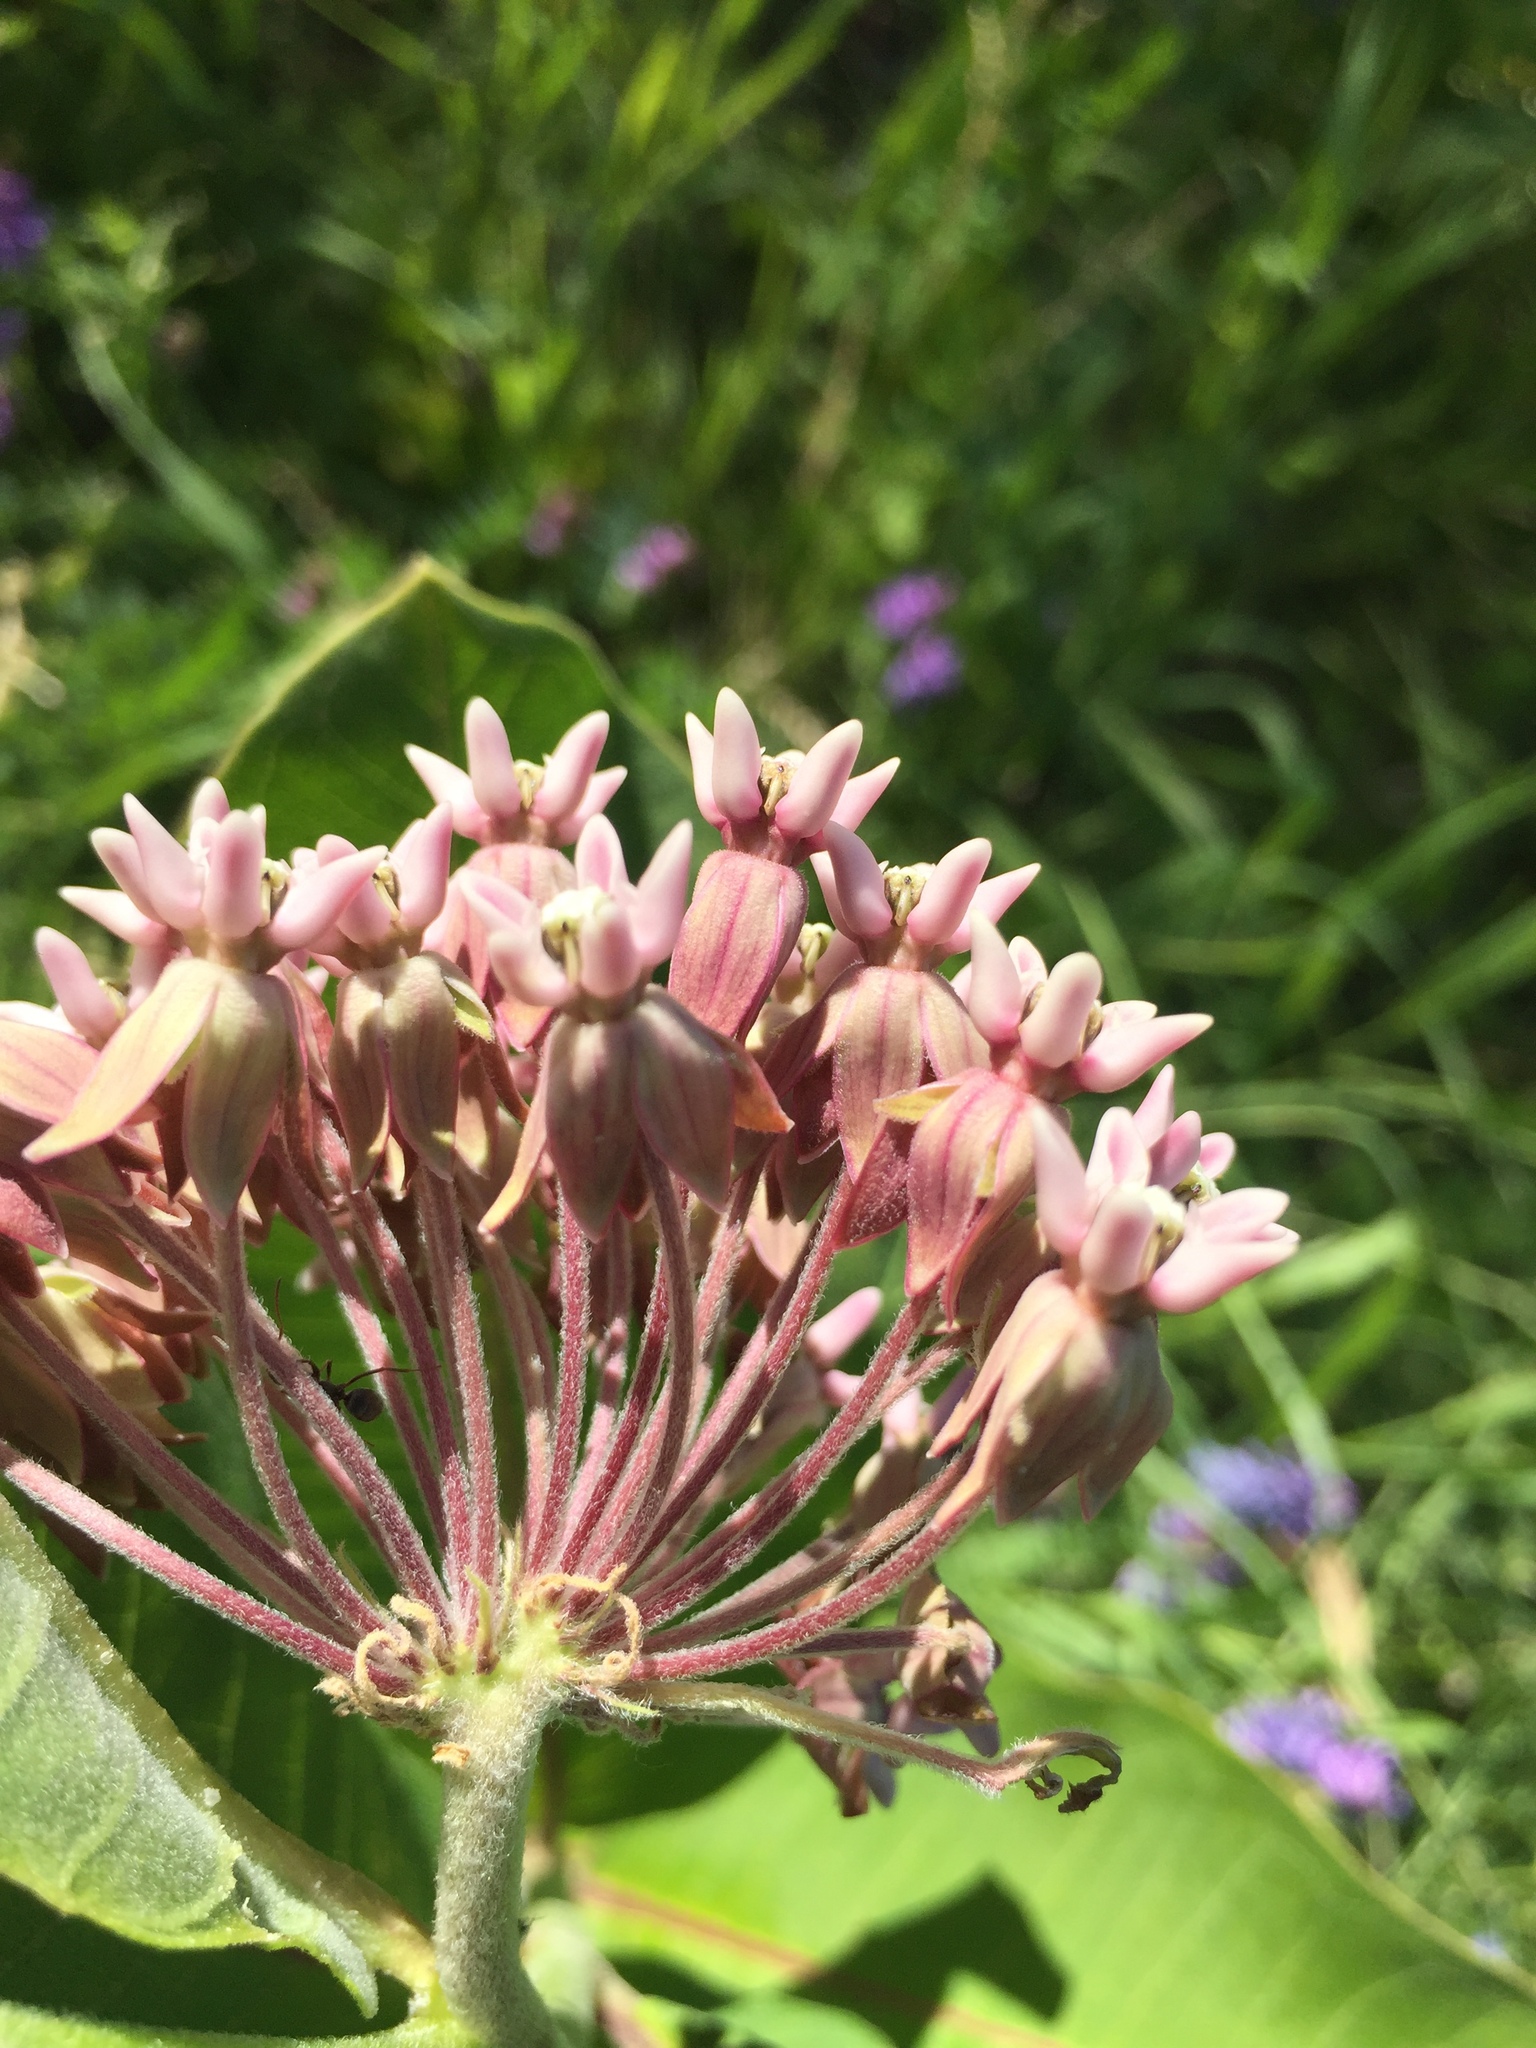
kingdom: Plantae
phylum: Tracheophyta
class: Magnoliopsida
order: Gentianales
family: Apocynaceae
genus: Asclepias
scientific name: Asclepias syriaca
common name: Common milkweed
